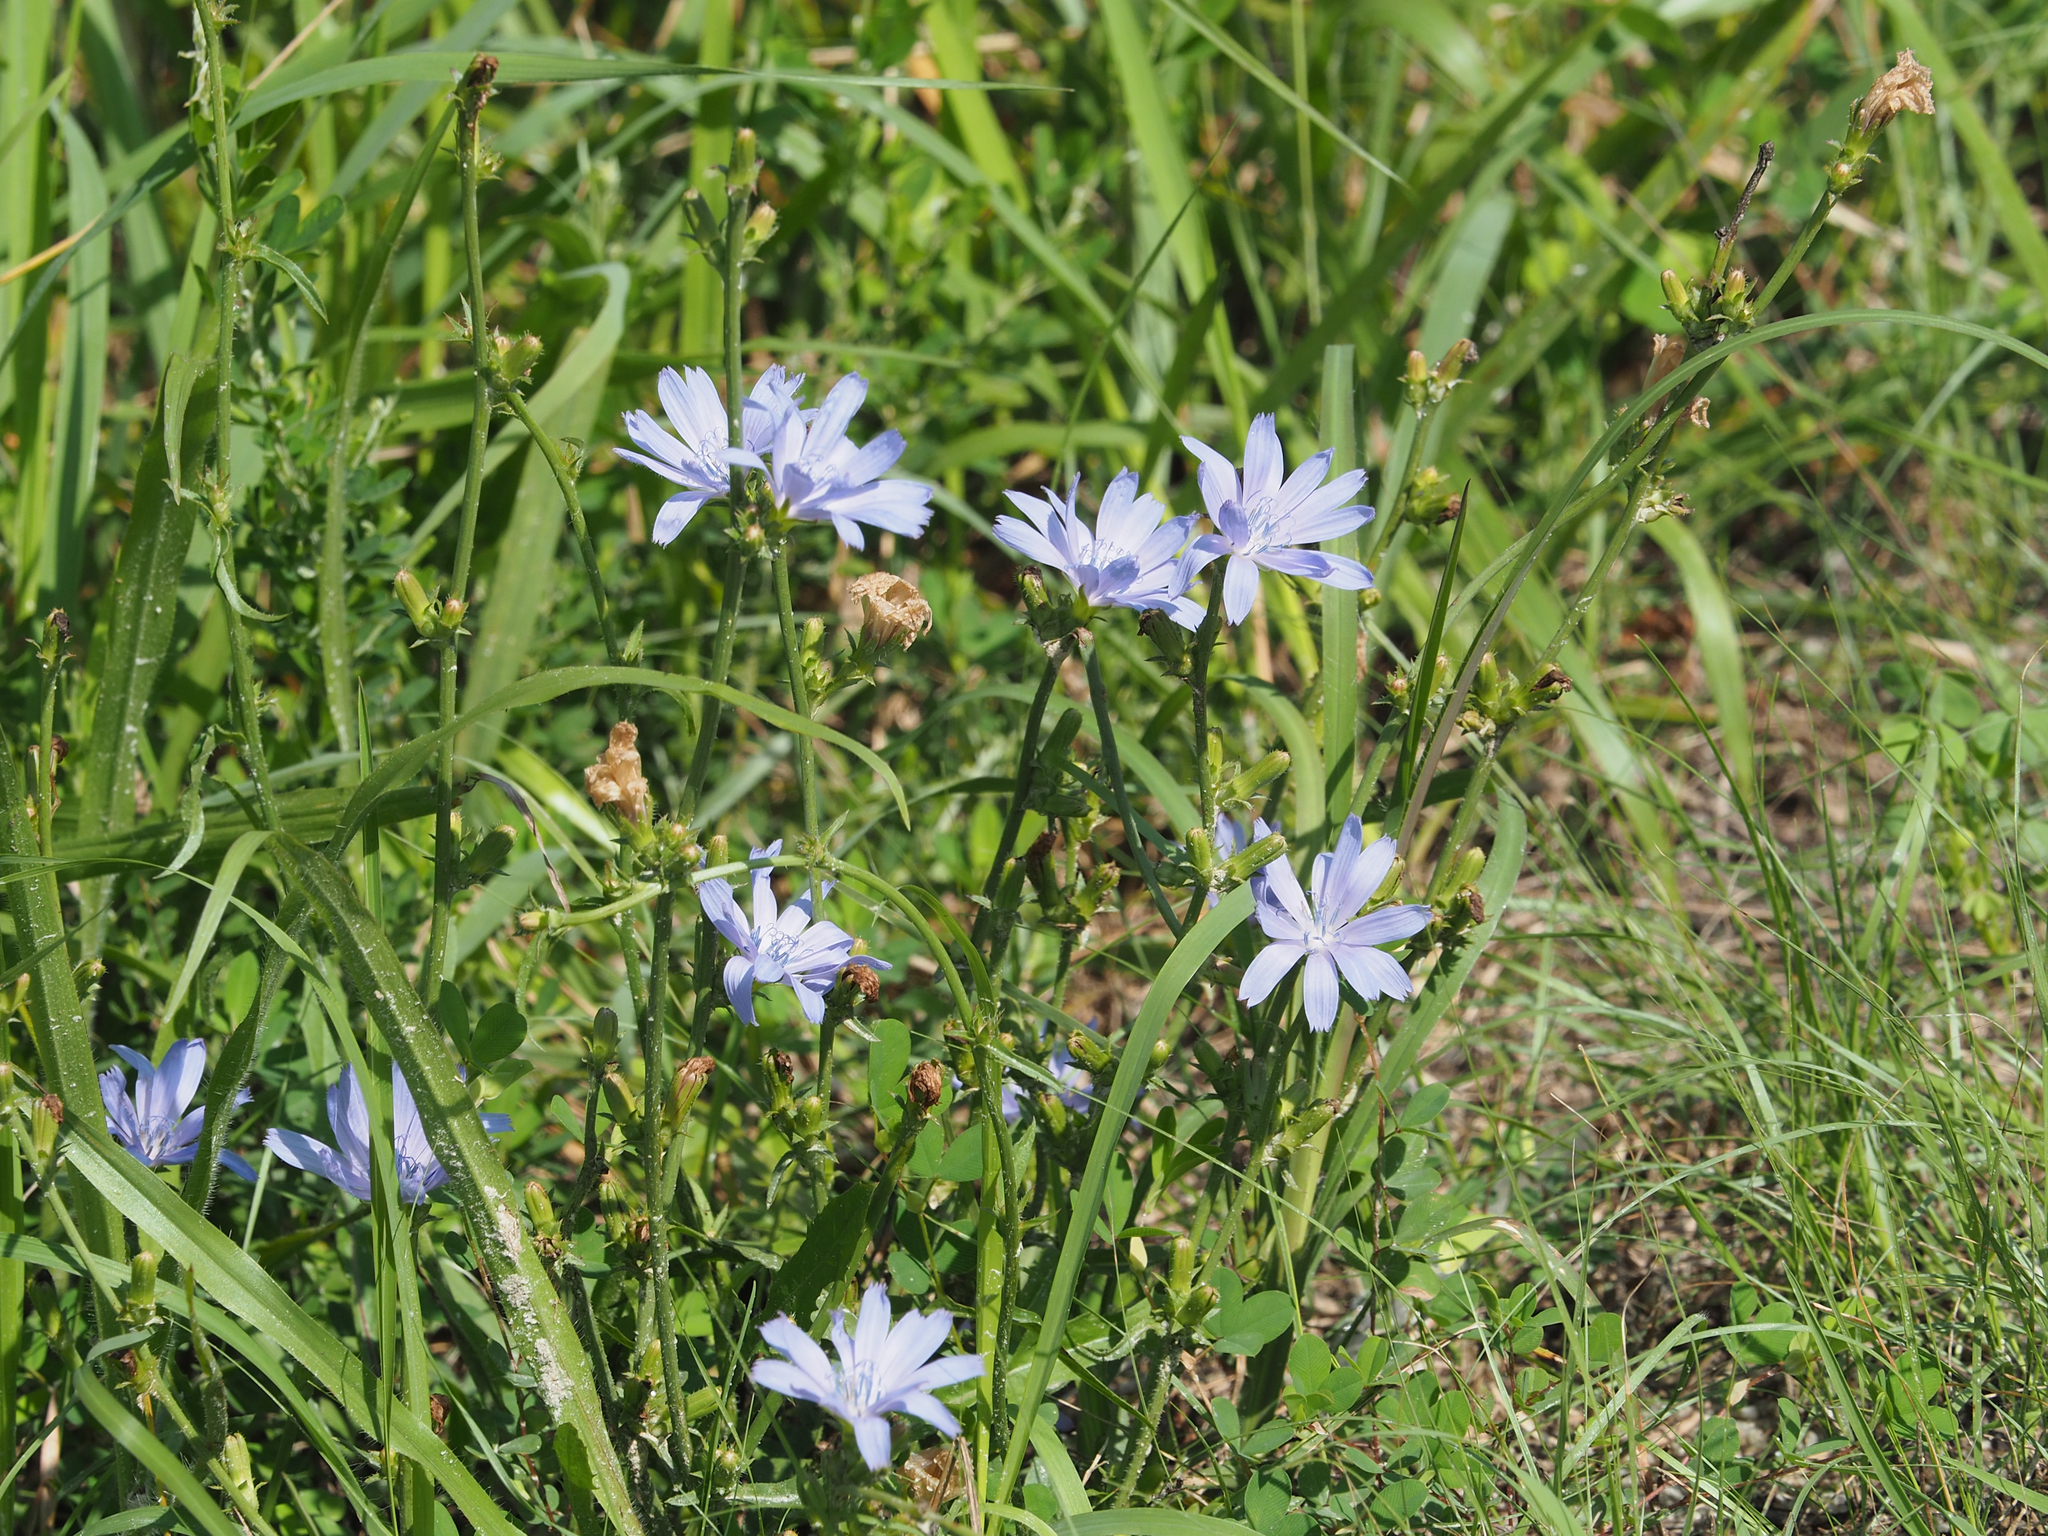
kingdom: Plantae
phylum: Tracheophyta
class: Magnoliopsida
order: Asterales
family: Asteraceae
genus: Cichorium
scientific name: Cichorium intybus
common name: Chicory
